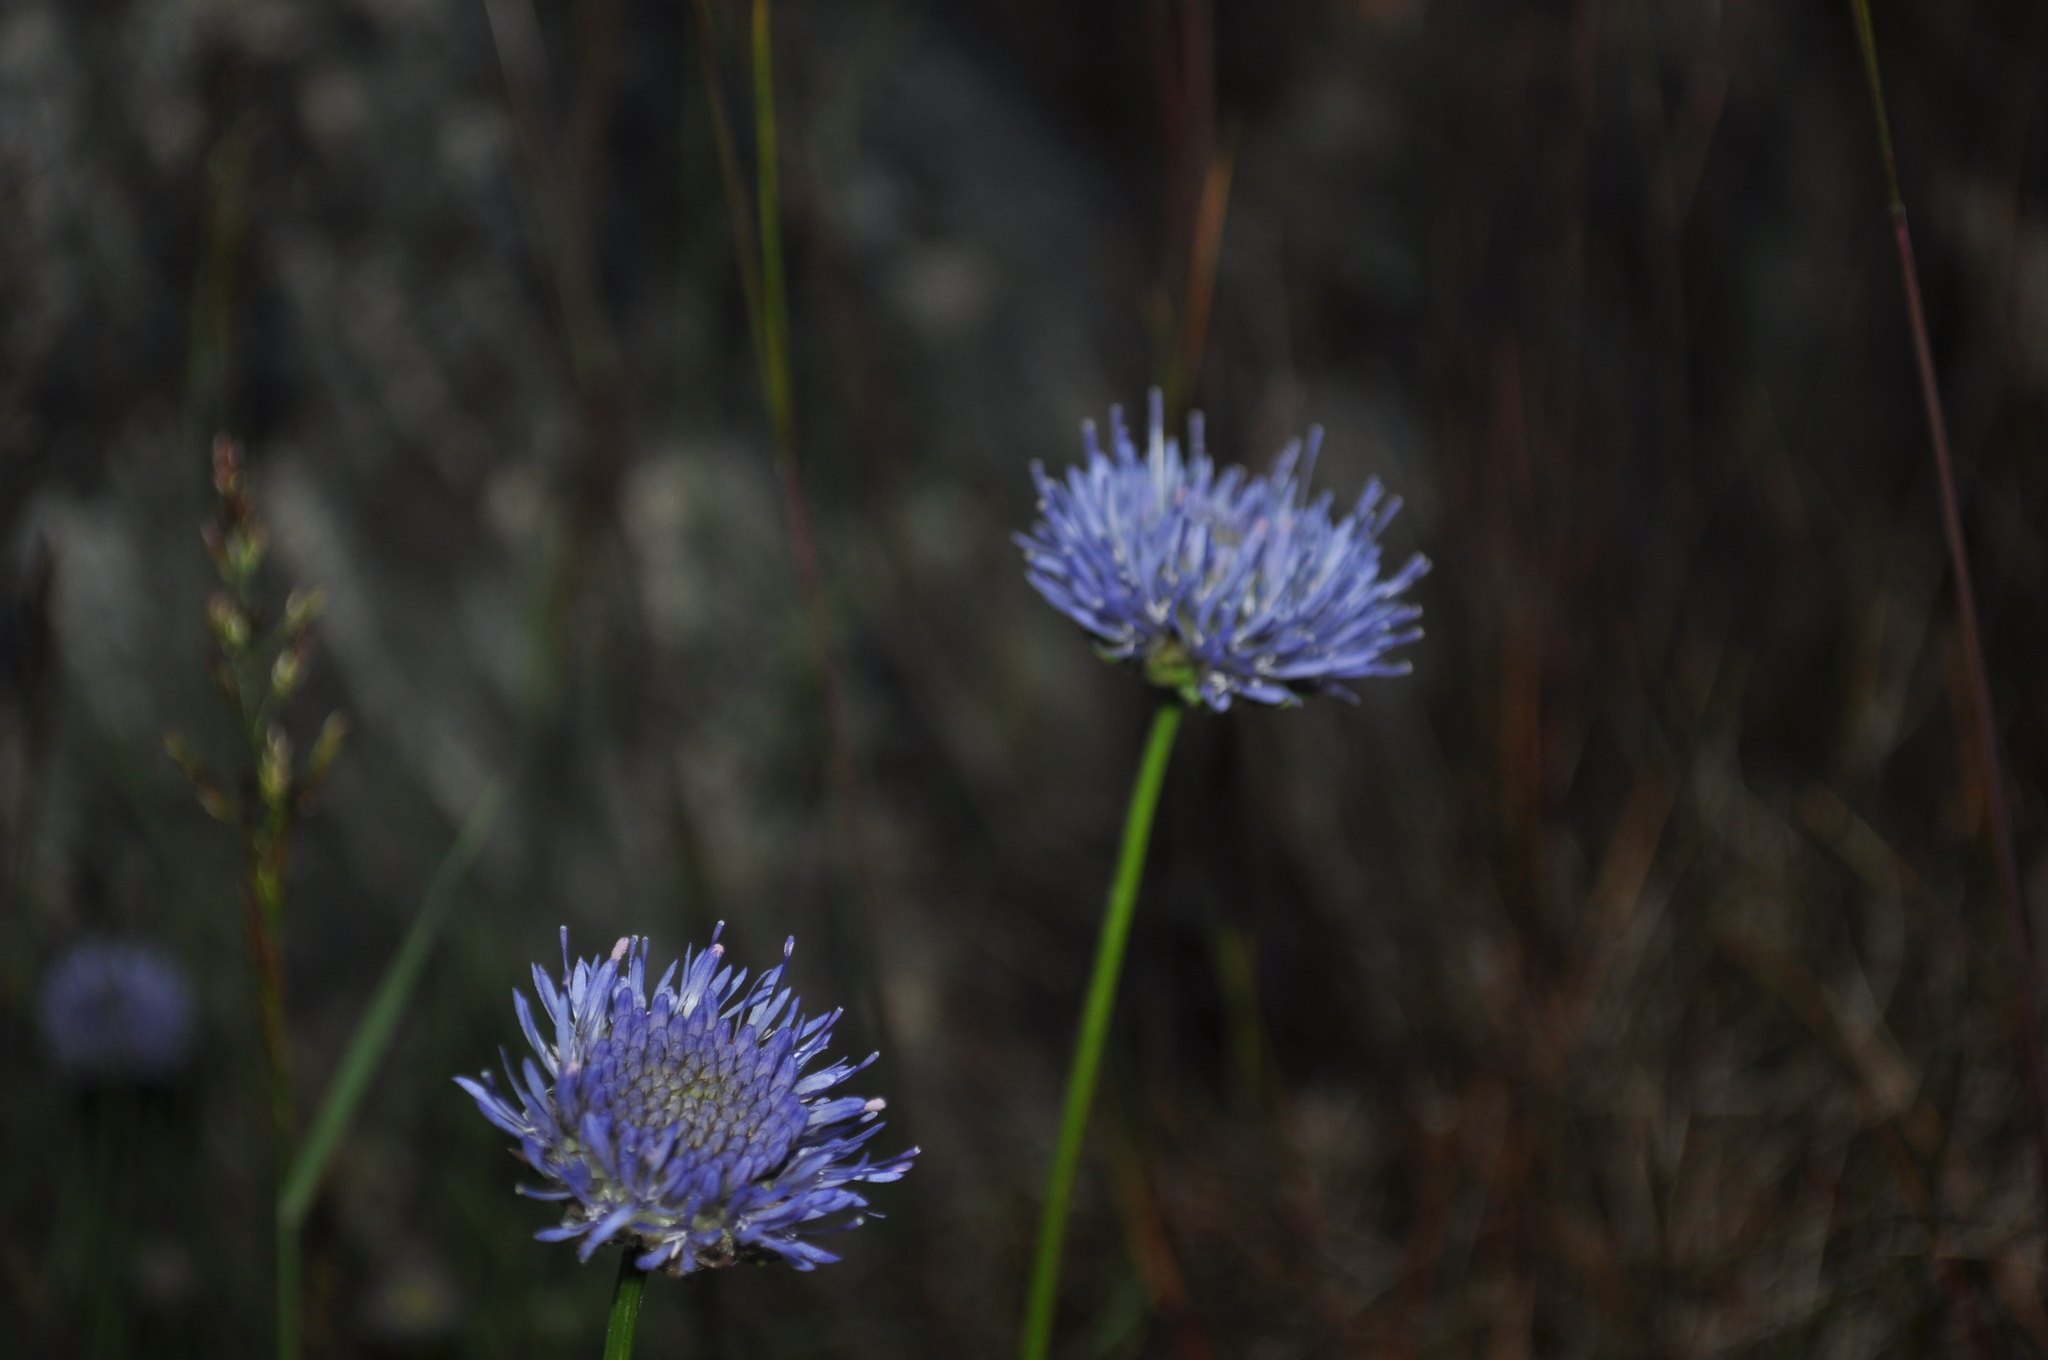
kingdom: Plantae
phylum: Tracheophyta
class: Magnoliopsida
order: Asterales
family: Campanulaceae
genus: Jasione
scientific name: Jasione montana
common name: Sheep's-bit
